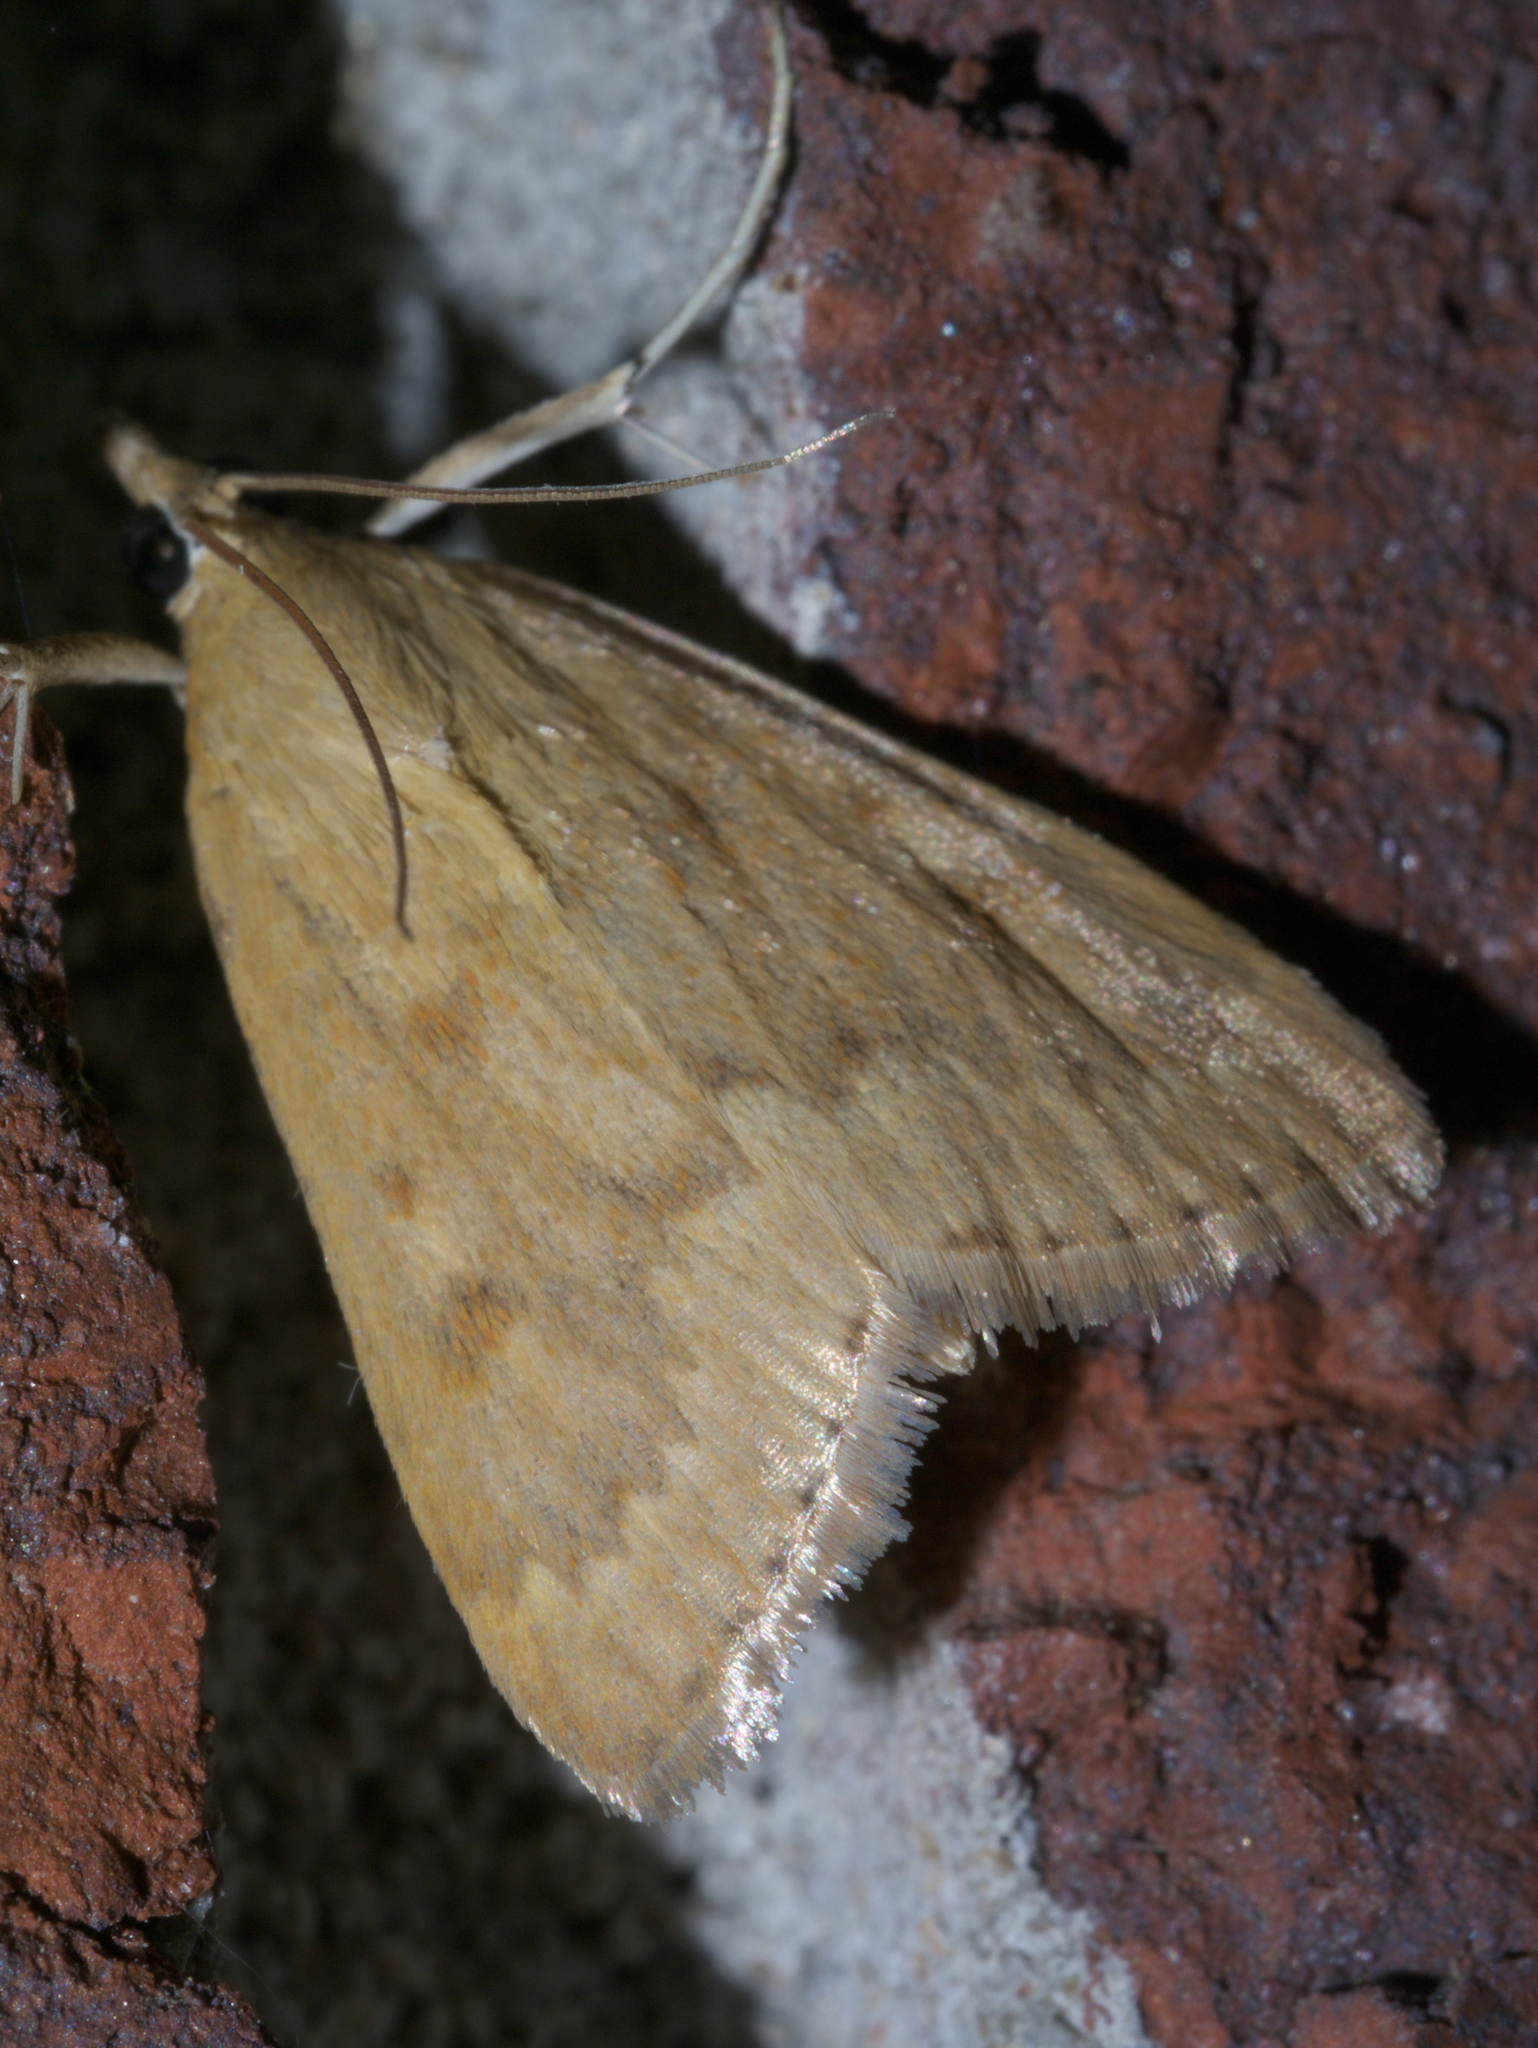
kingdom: Animalia
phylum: Arthropoda
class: Insecta
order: Lepidoptera
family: Crambidae
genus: Achyra
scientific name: Achyra rantalis
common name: Garden webworm
